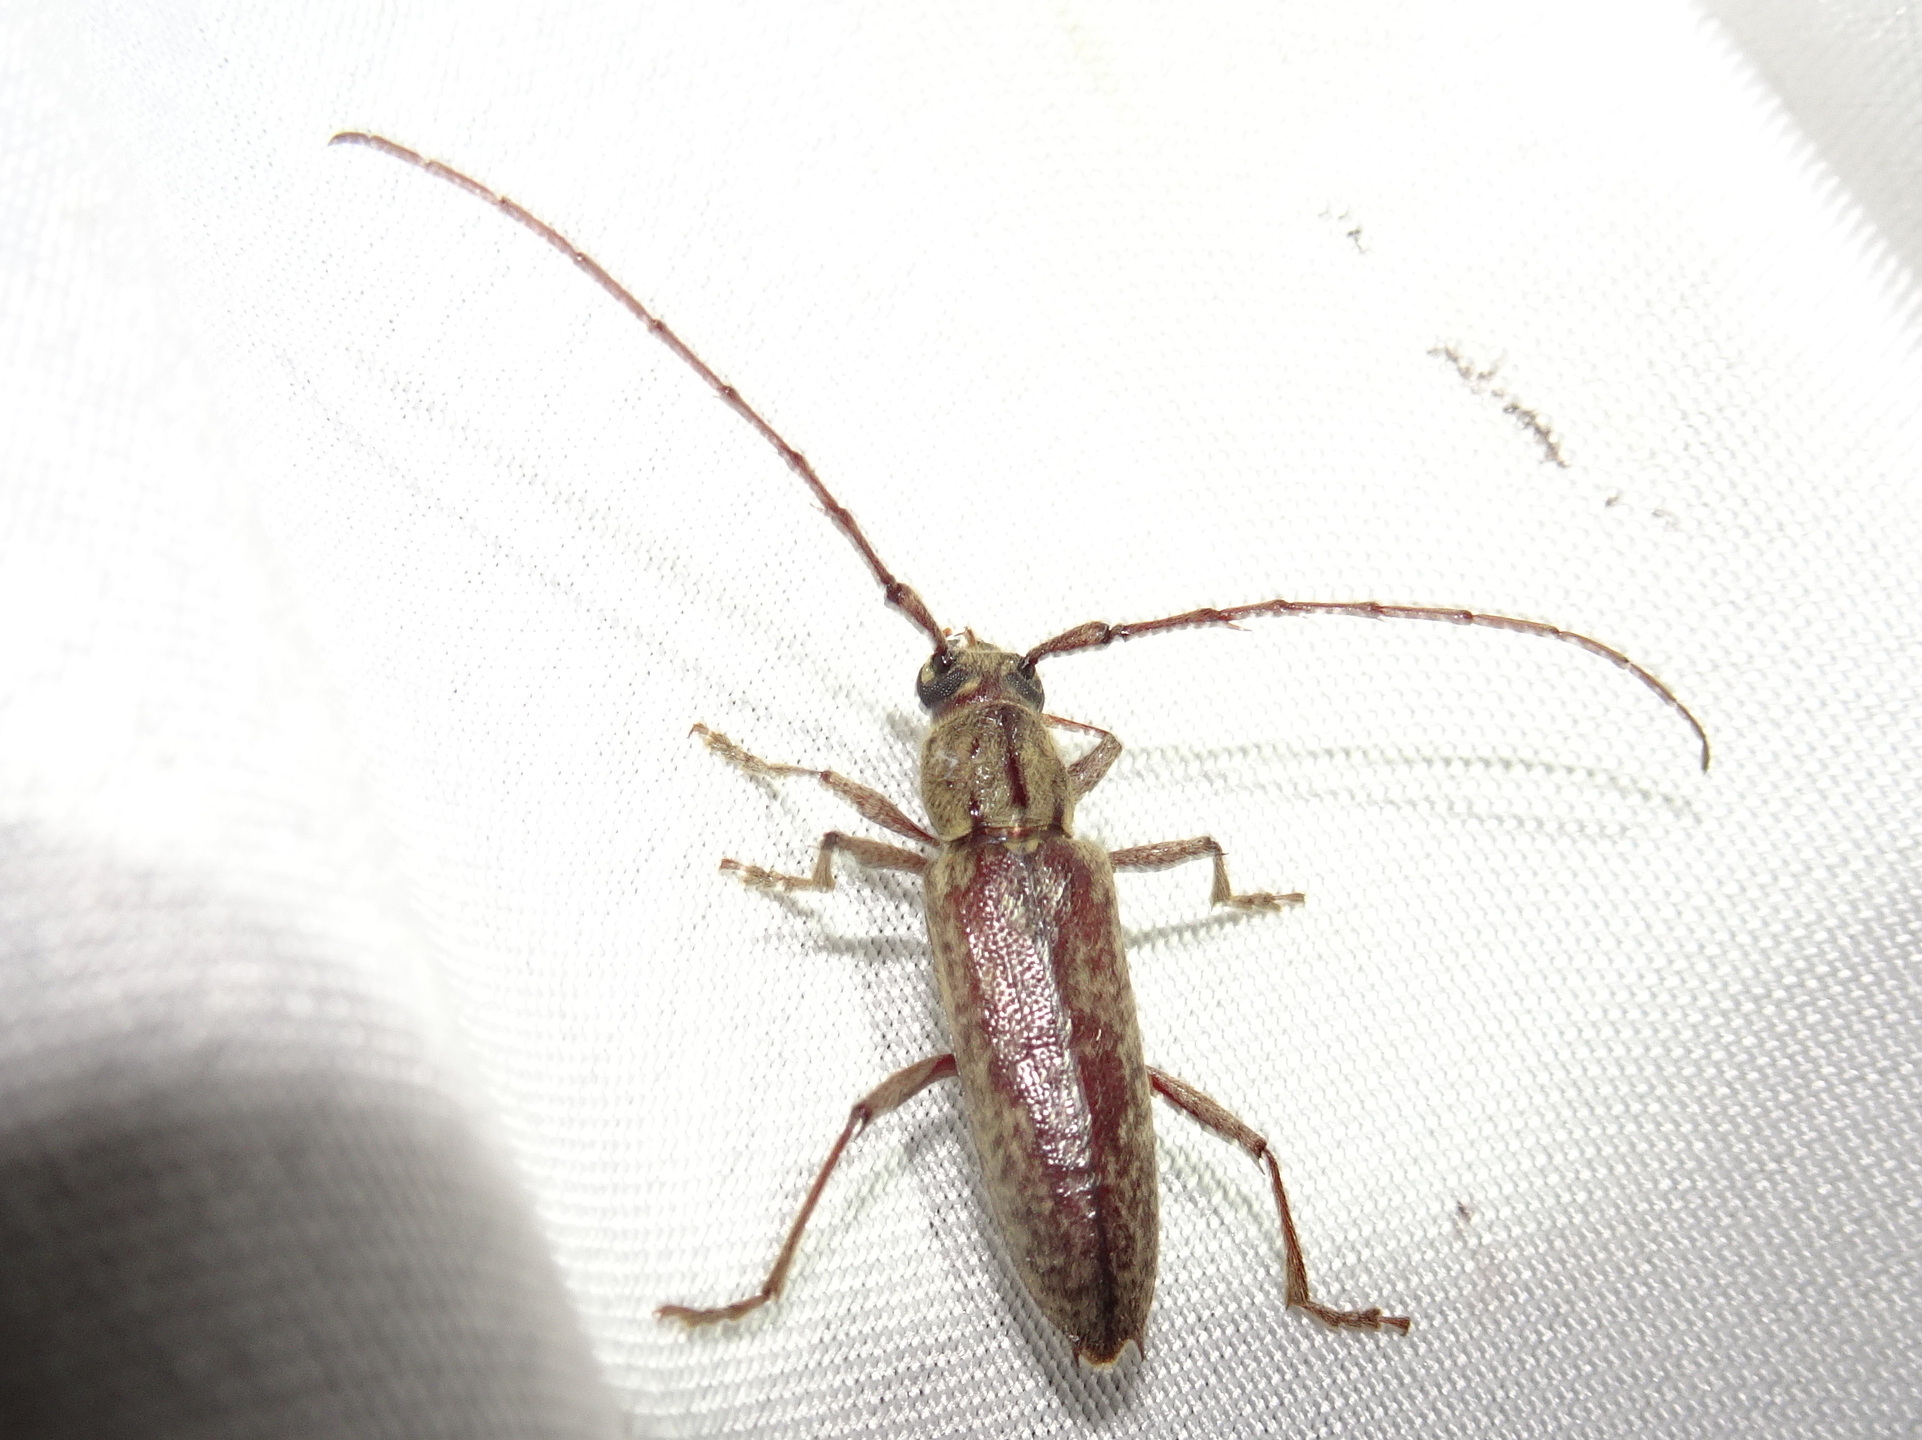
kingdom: Animalia
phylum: Arthropoda
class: Insecta
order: Coleoptera
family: Cerambycidae
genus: Elaphidion
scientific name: Elaphidion mucronatum
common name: Spined oak borer
